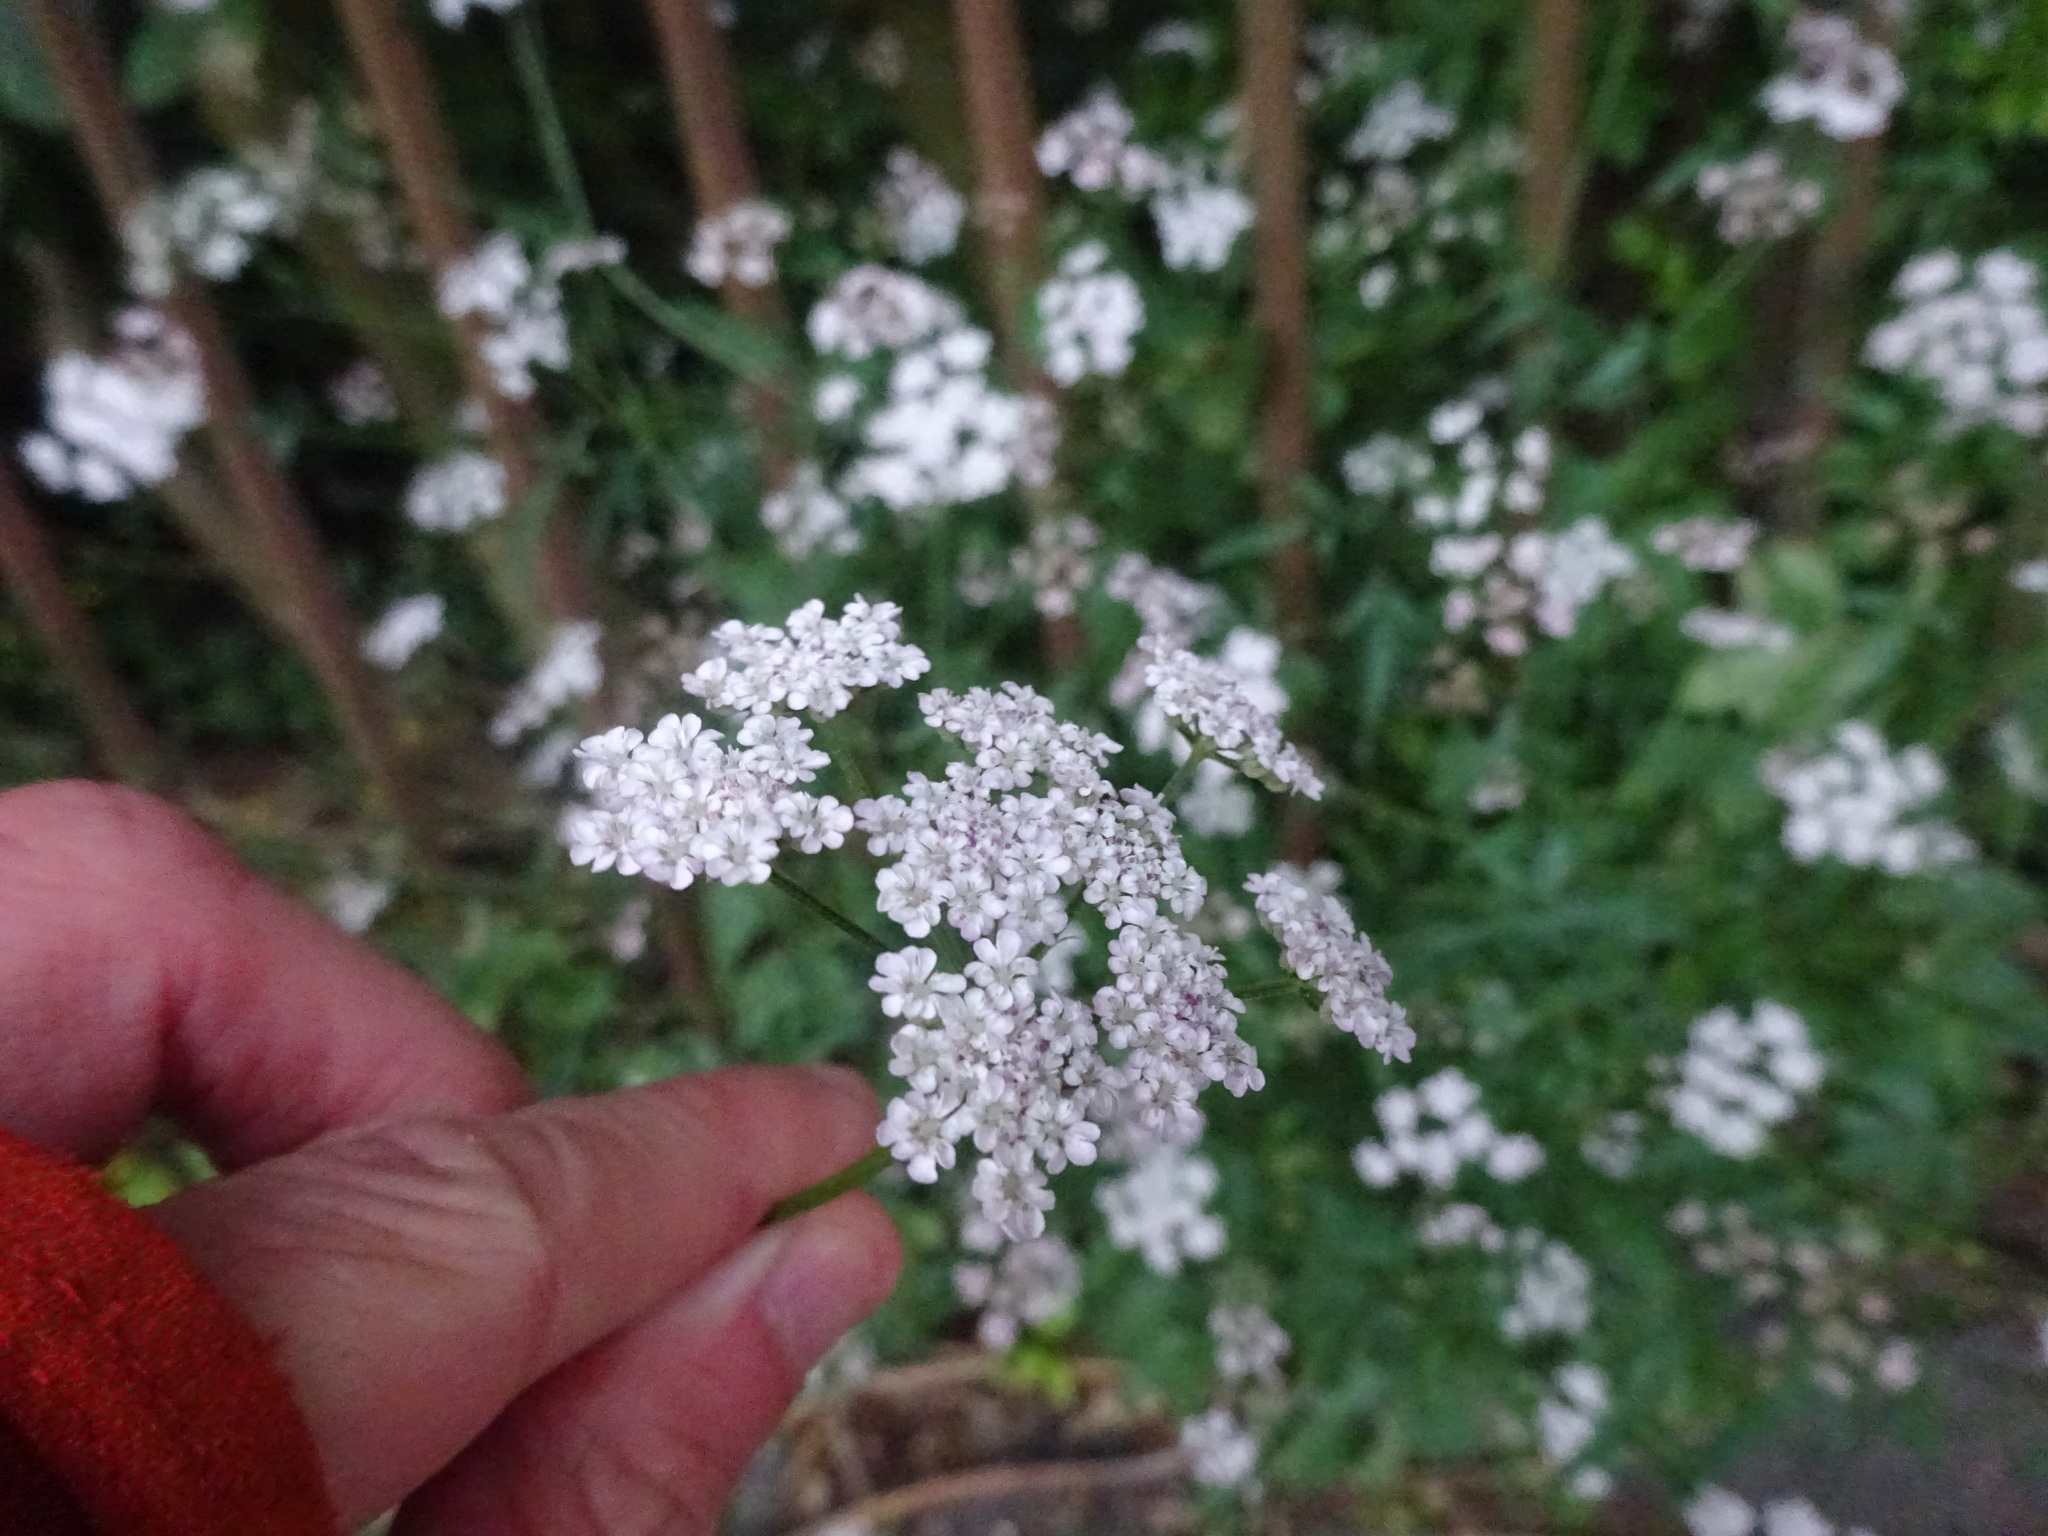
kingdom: Plantae
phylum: Tracheophyta
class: Magnoliopsida
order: Apiales
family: Apiaceae
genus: Torilis
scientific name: Torilis japonica
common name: Upright hedge-parsley
